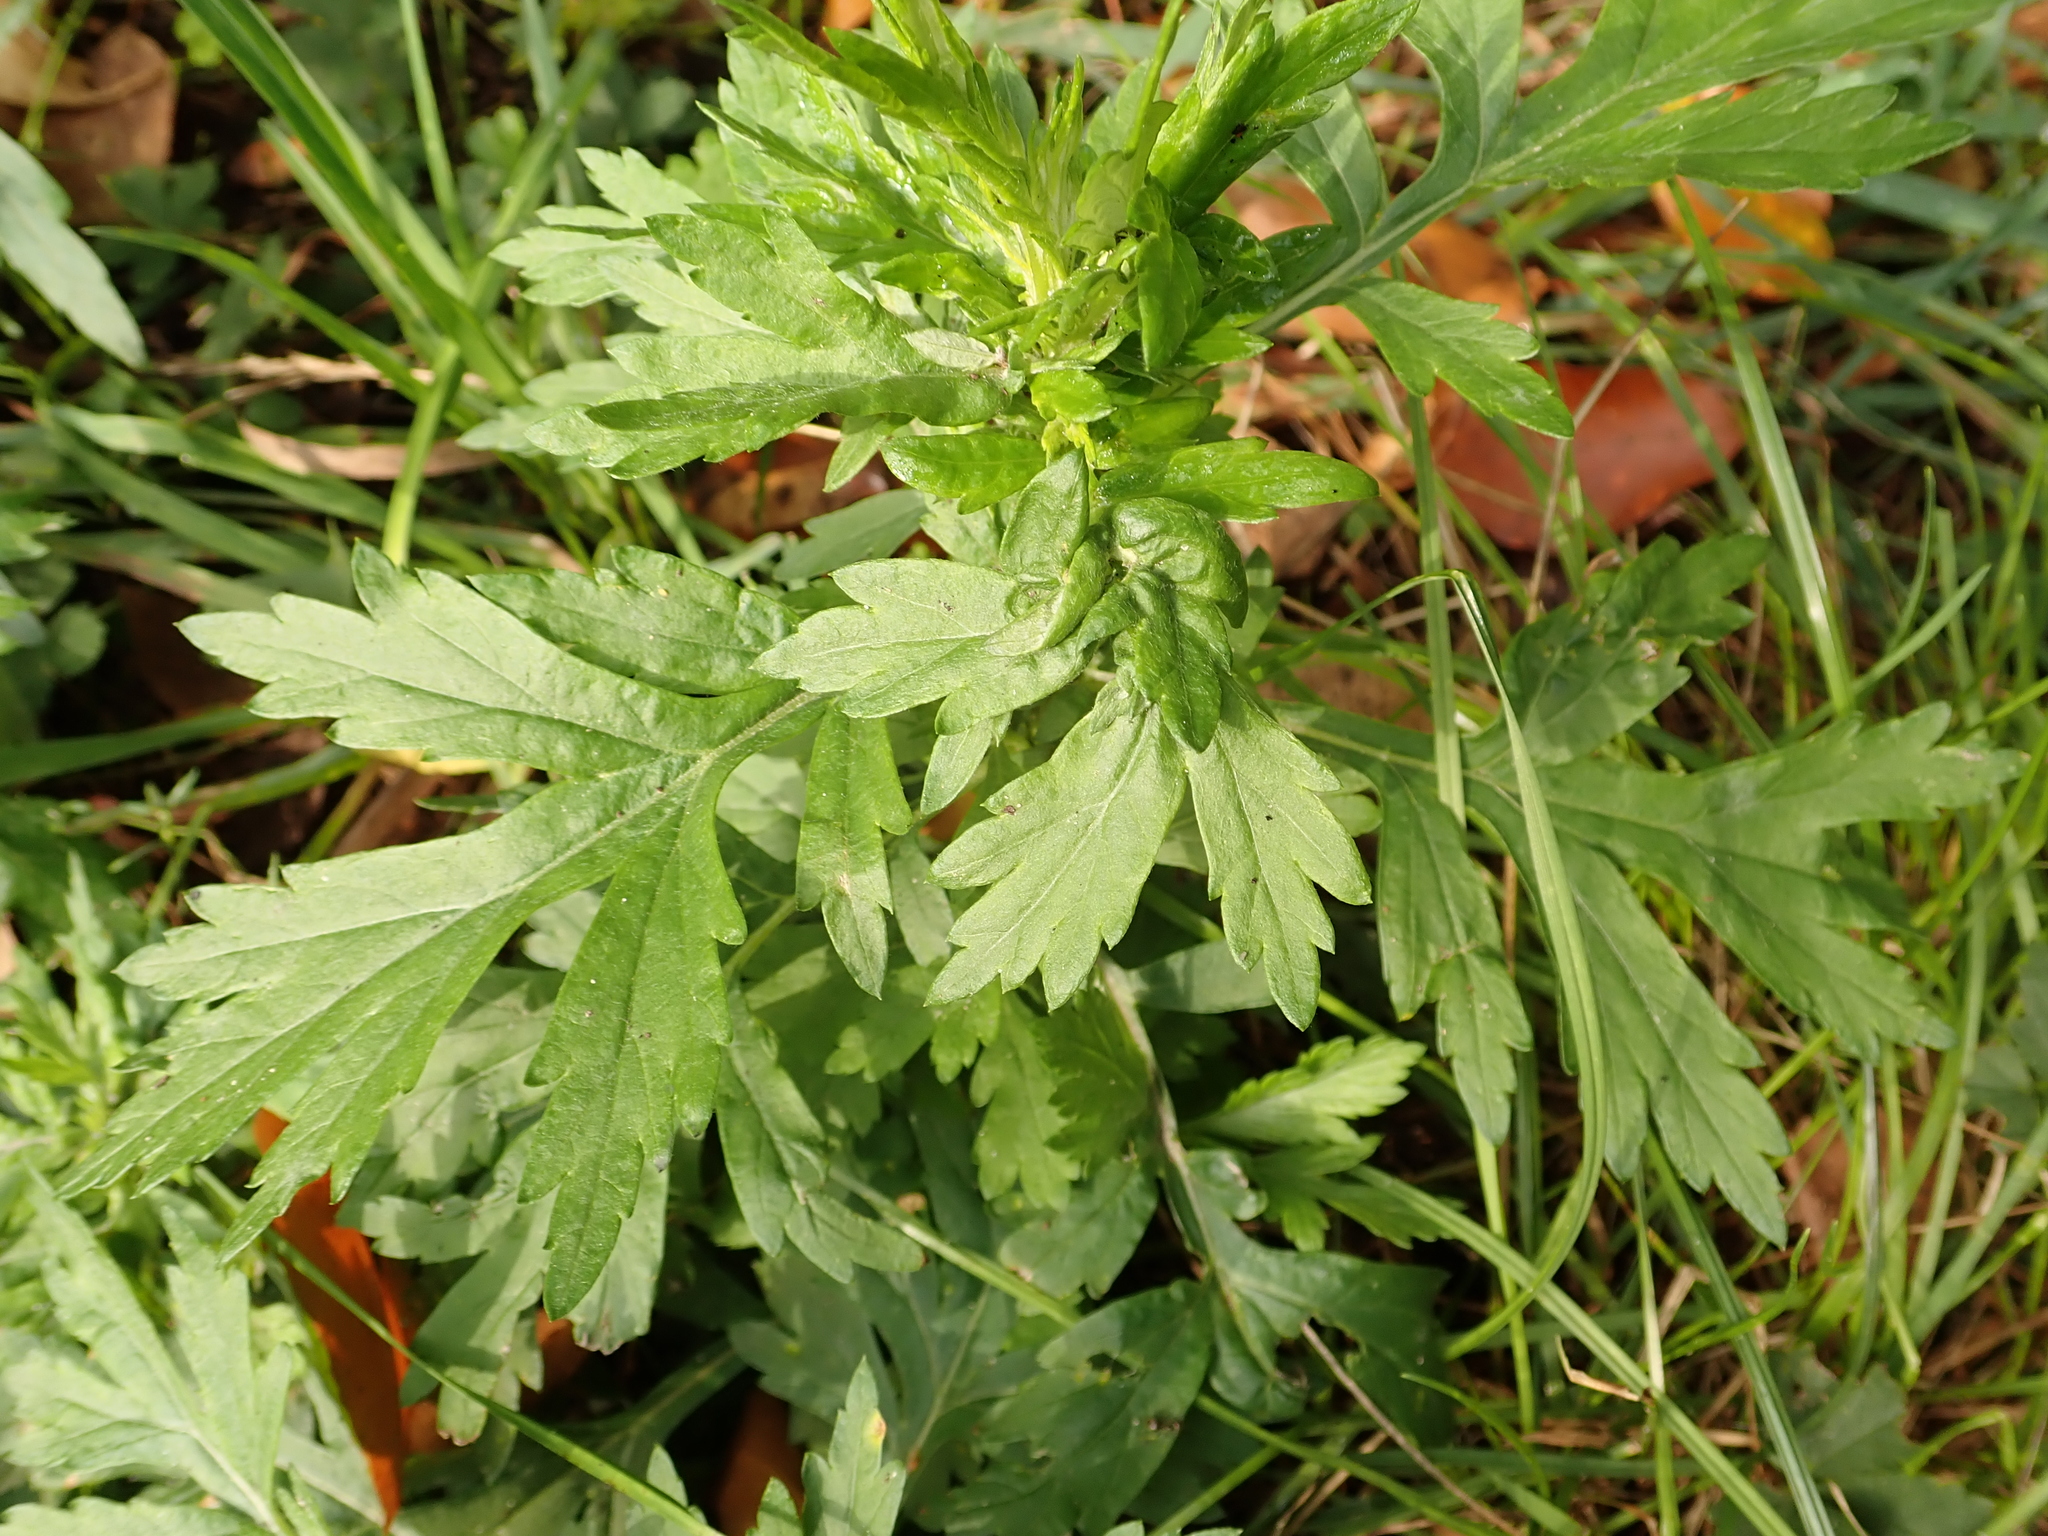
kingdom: Plantae
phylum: Tracheophyta
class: Magnoliopsida
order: Asterales
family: Asteraceae
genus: Artemisia
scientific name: Artemisia vulgaris
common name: Mugwort
